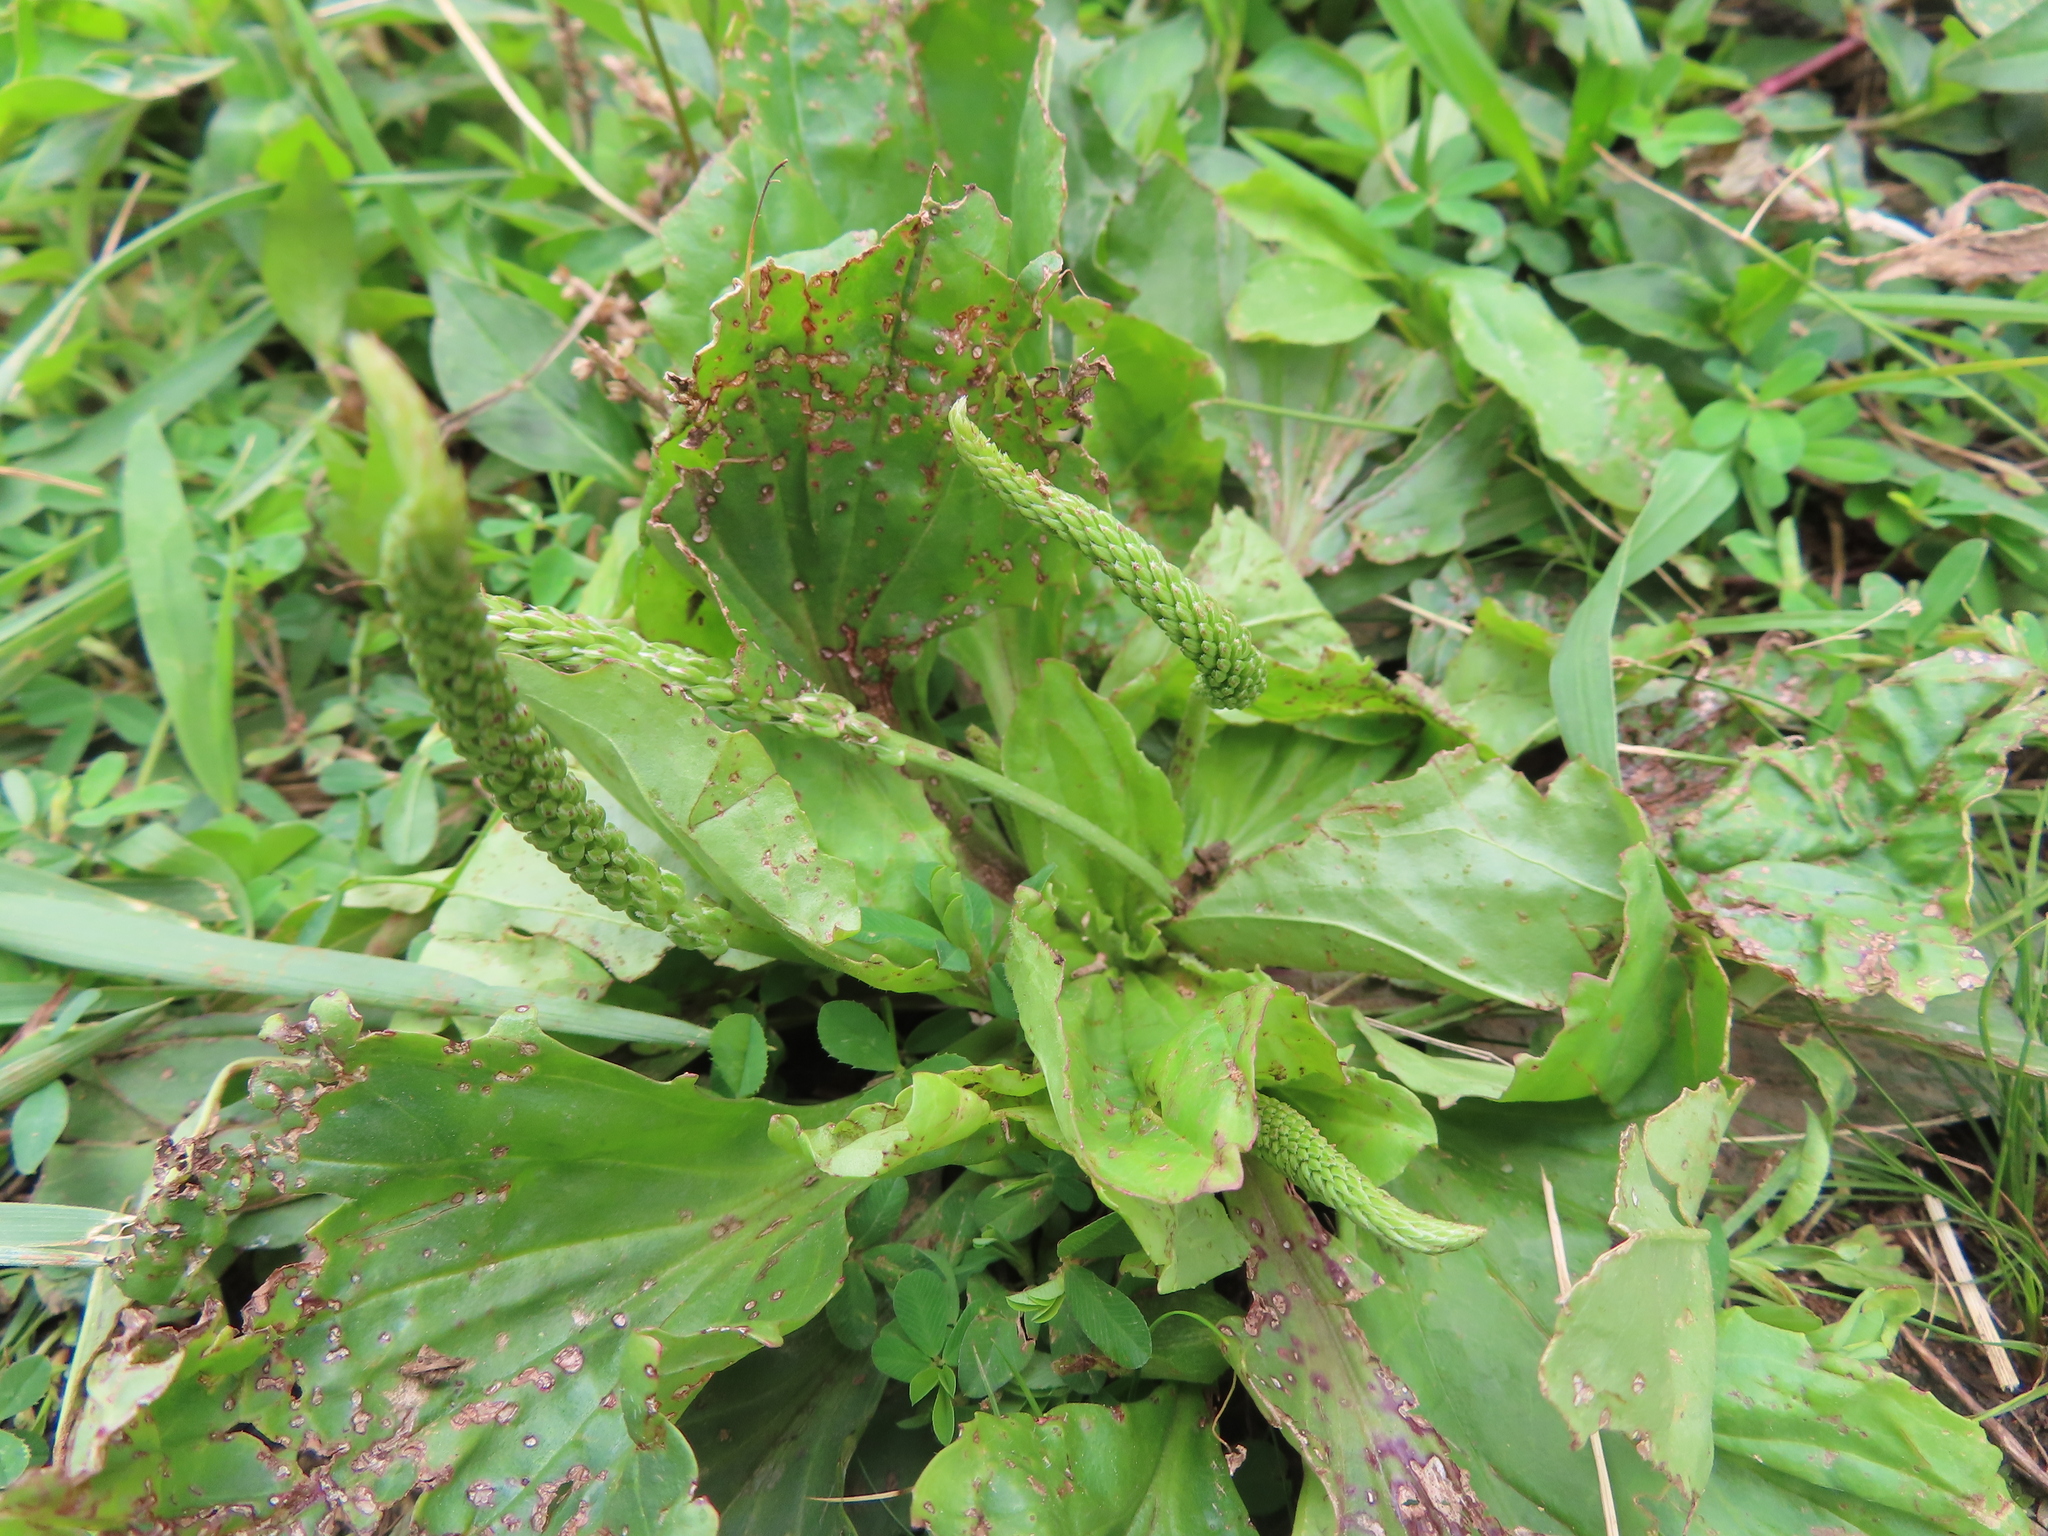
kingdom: Plantae
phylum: Tracheophyta
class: Magnoliopsida
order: Lamiales
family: Plantaginaceae
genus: Plantago
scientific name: Plantago rugelii
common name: American plantain
